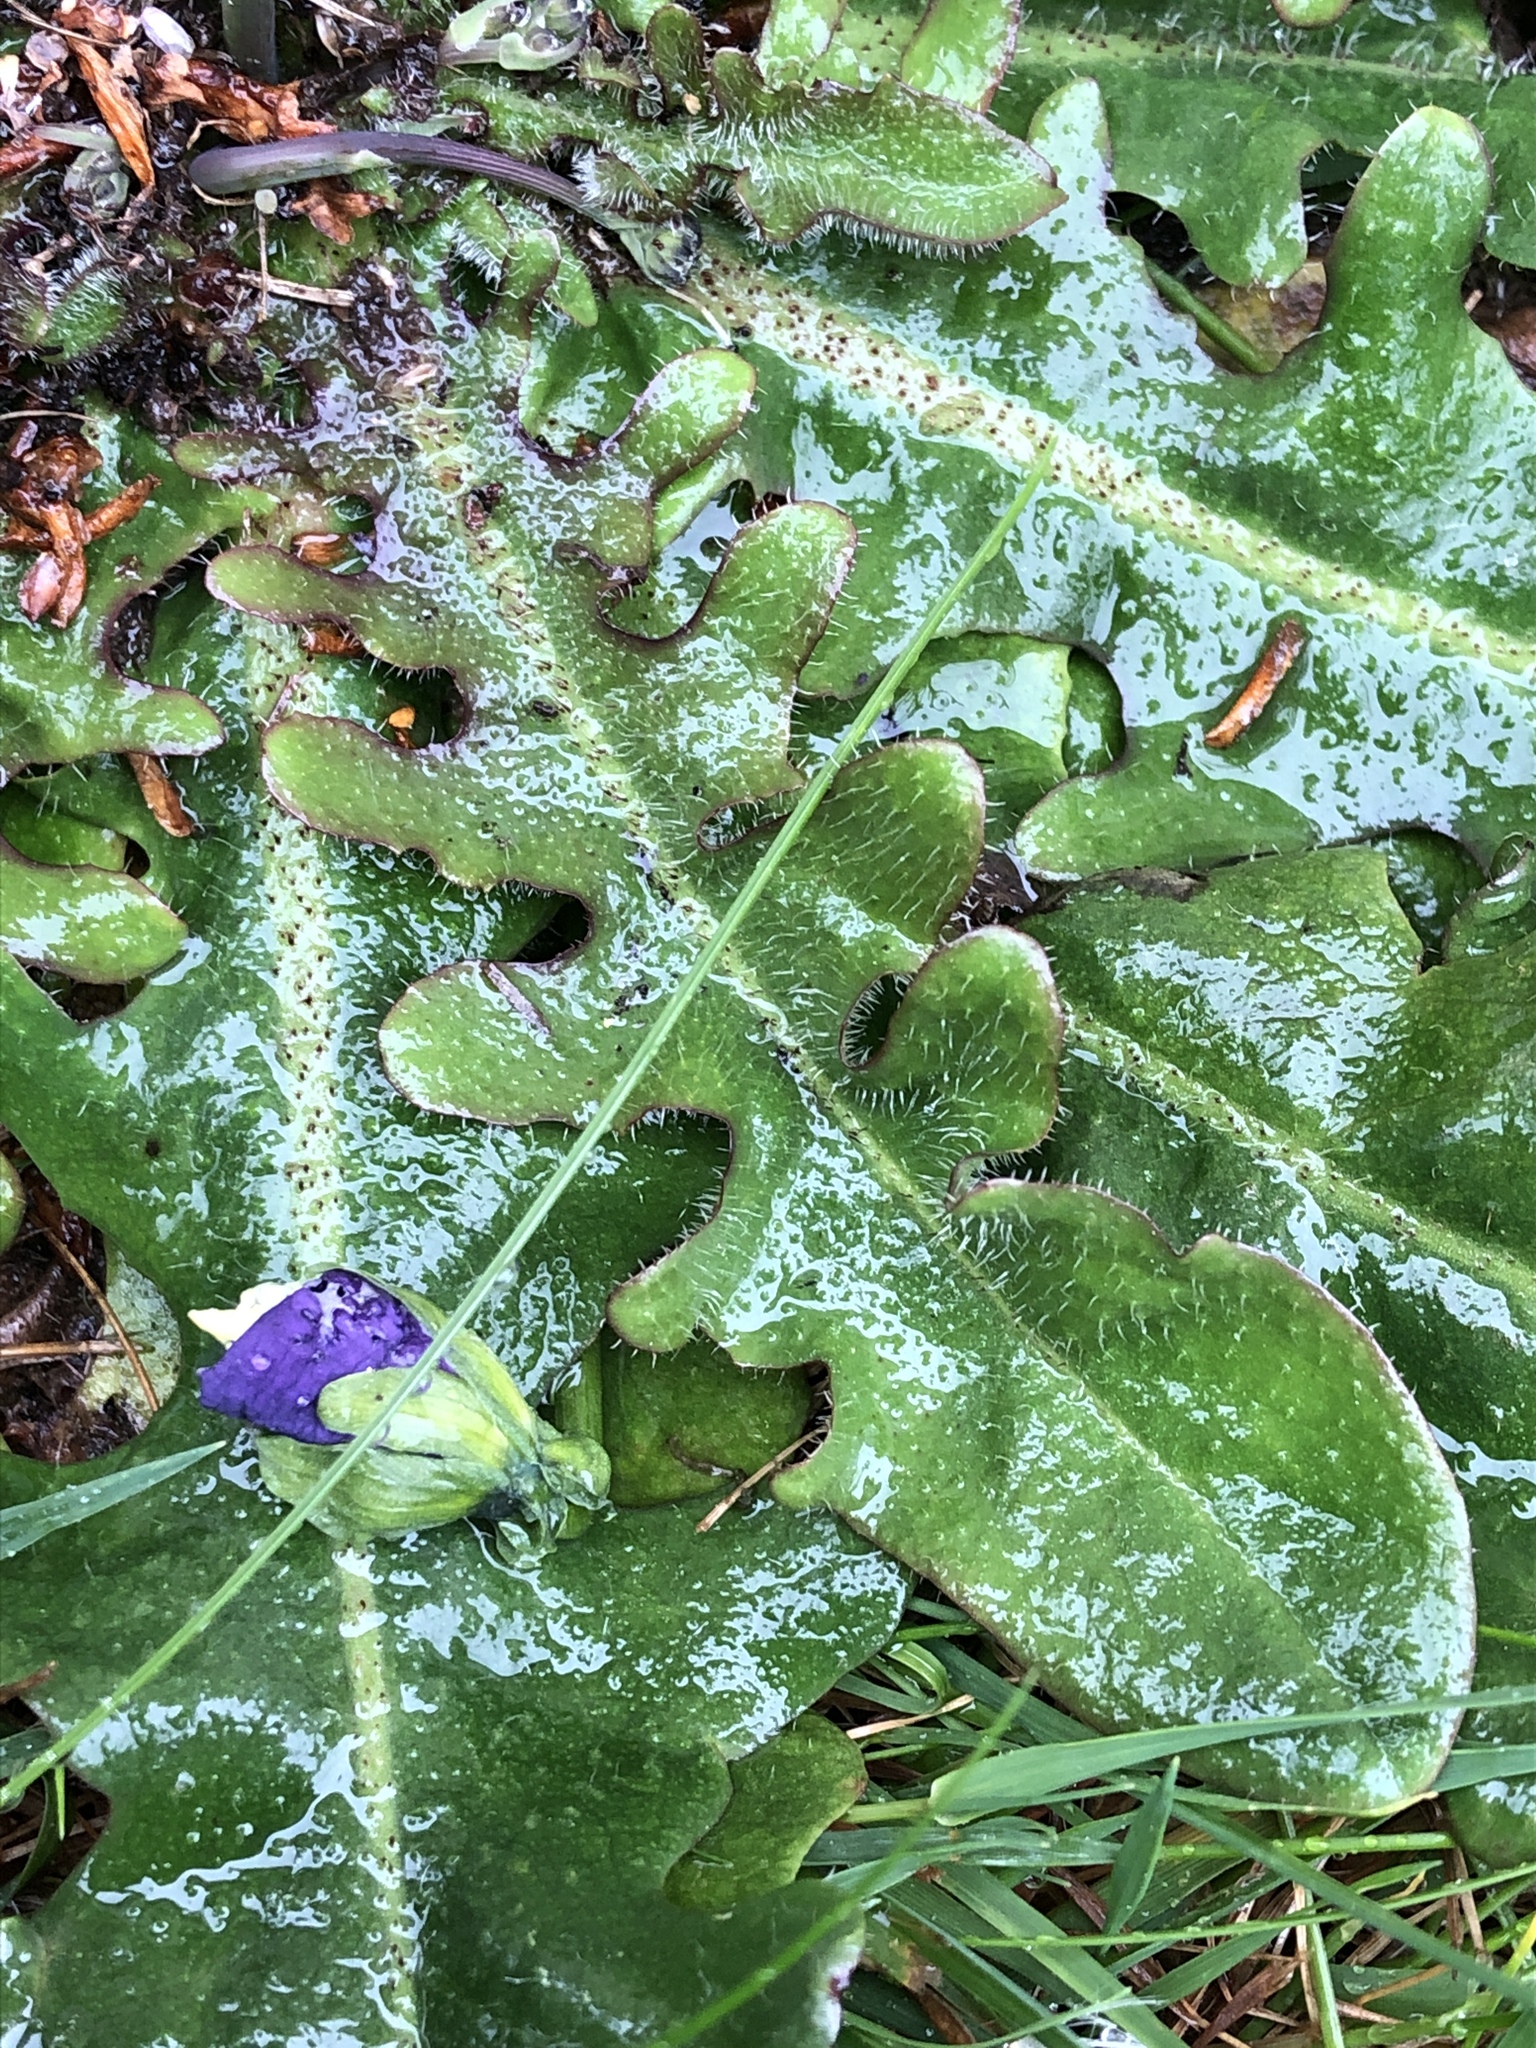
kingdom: Plantae
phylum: Tracheophyta
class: Magnoliopsida
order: Asterales
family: Asteraceae
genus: Hypochaeris
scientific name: Hypochaeris radicata
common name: Flatweed
